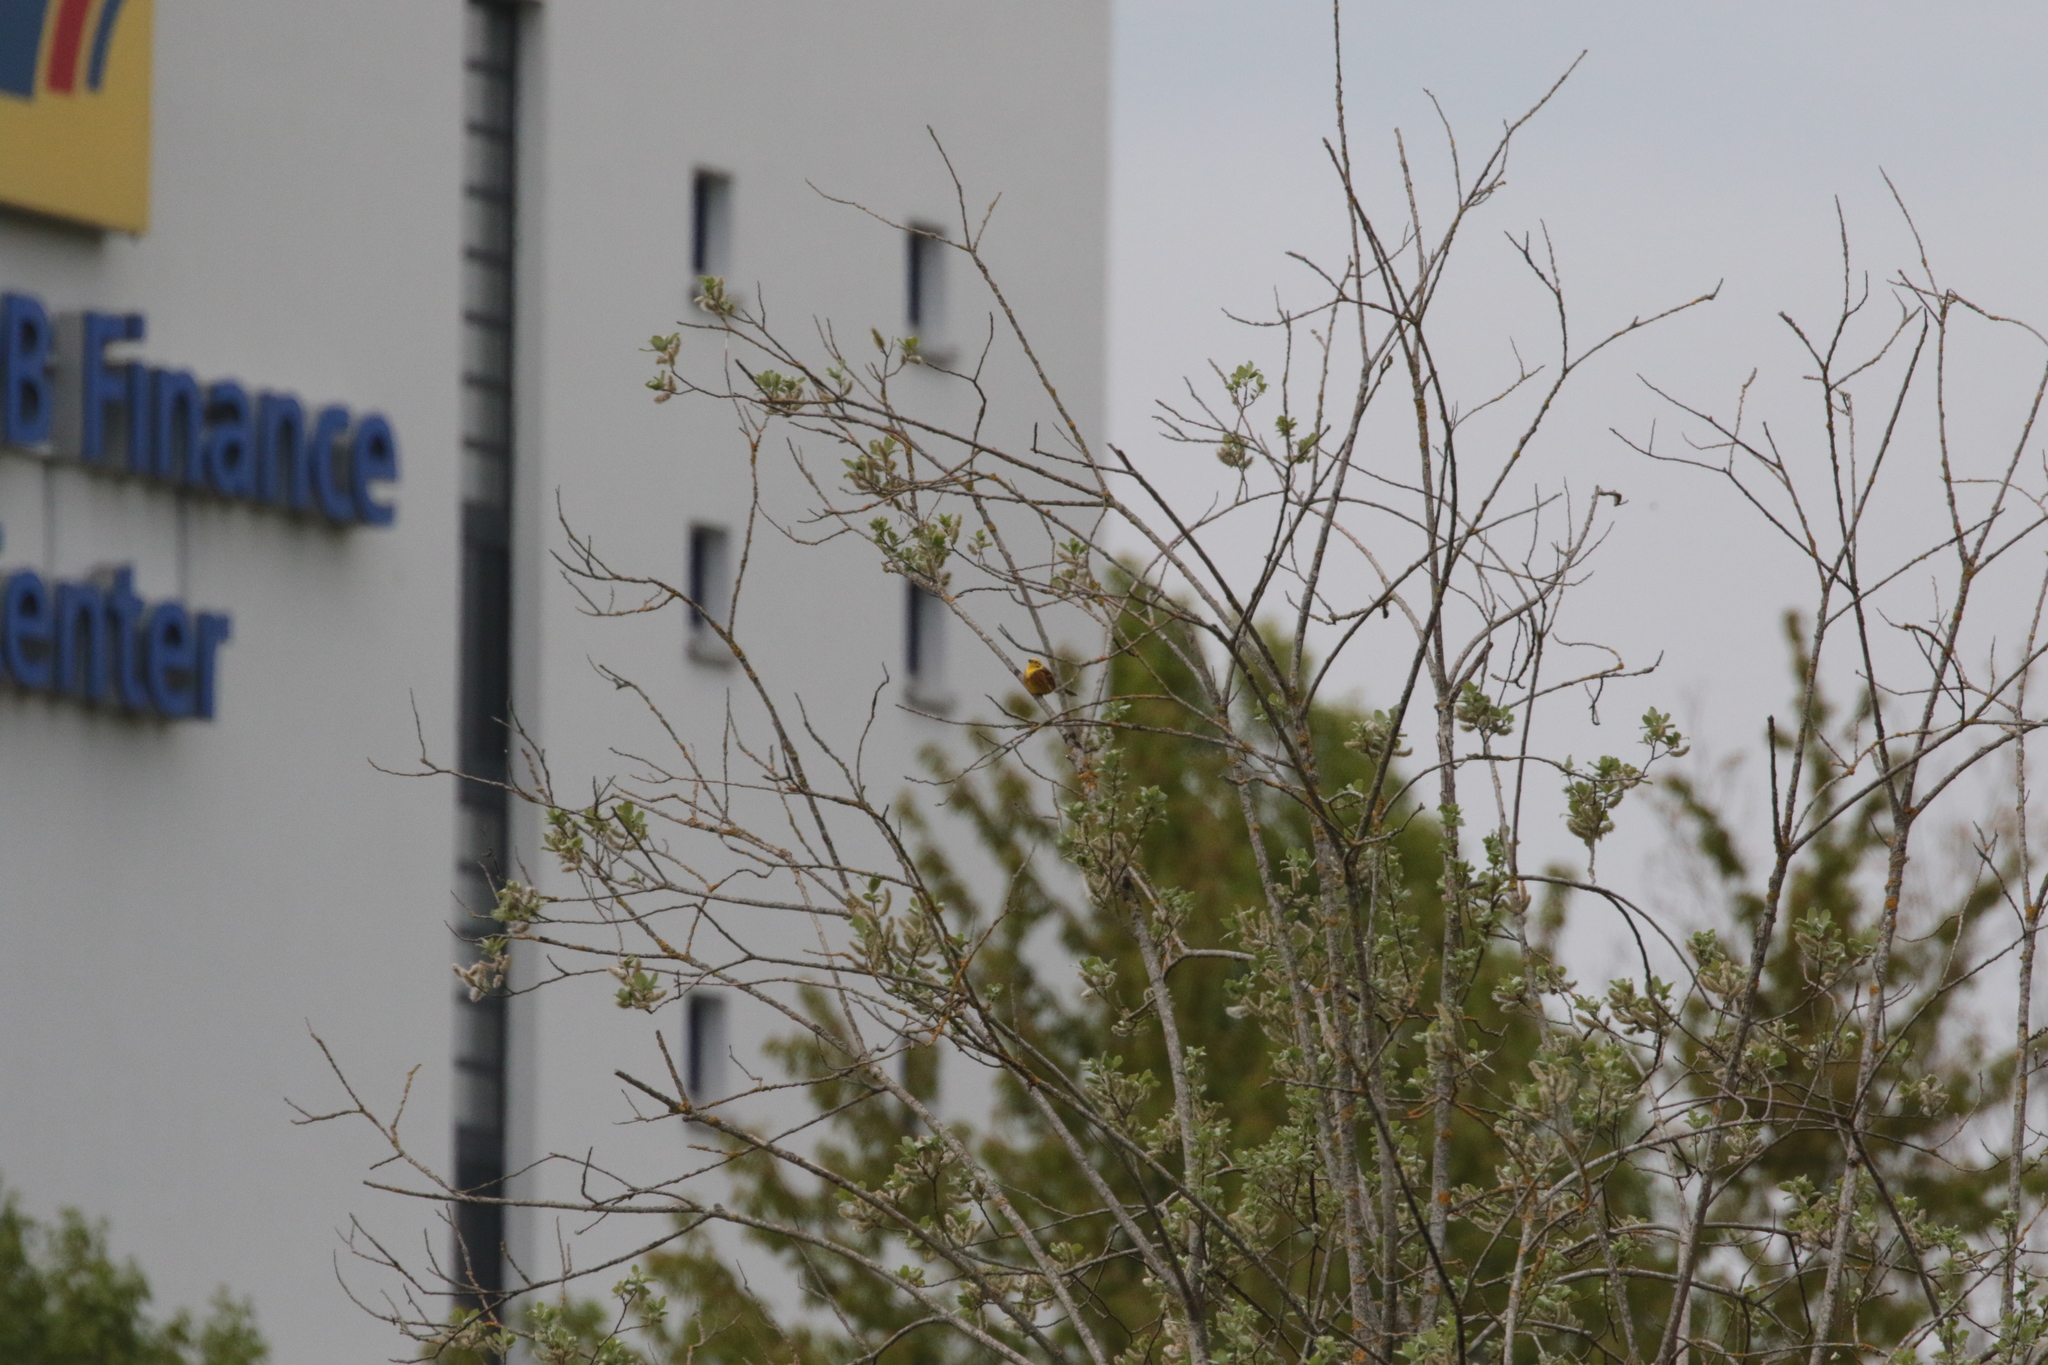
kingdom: Animalia
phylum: Chordata
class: Aves
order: Passeriformes
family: Emberizidae
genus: Emberiza
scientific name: Emberiza citrinella
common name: Yellowhammer
